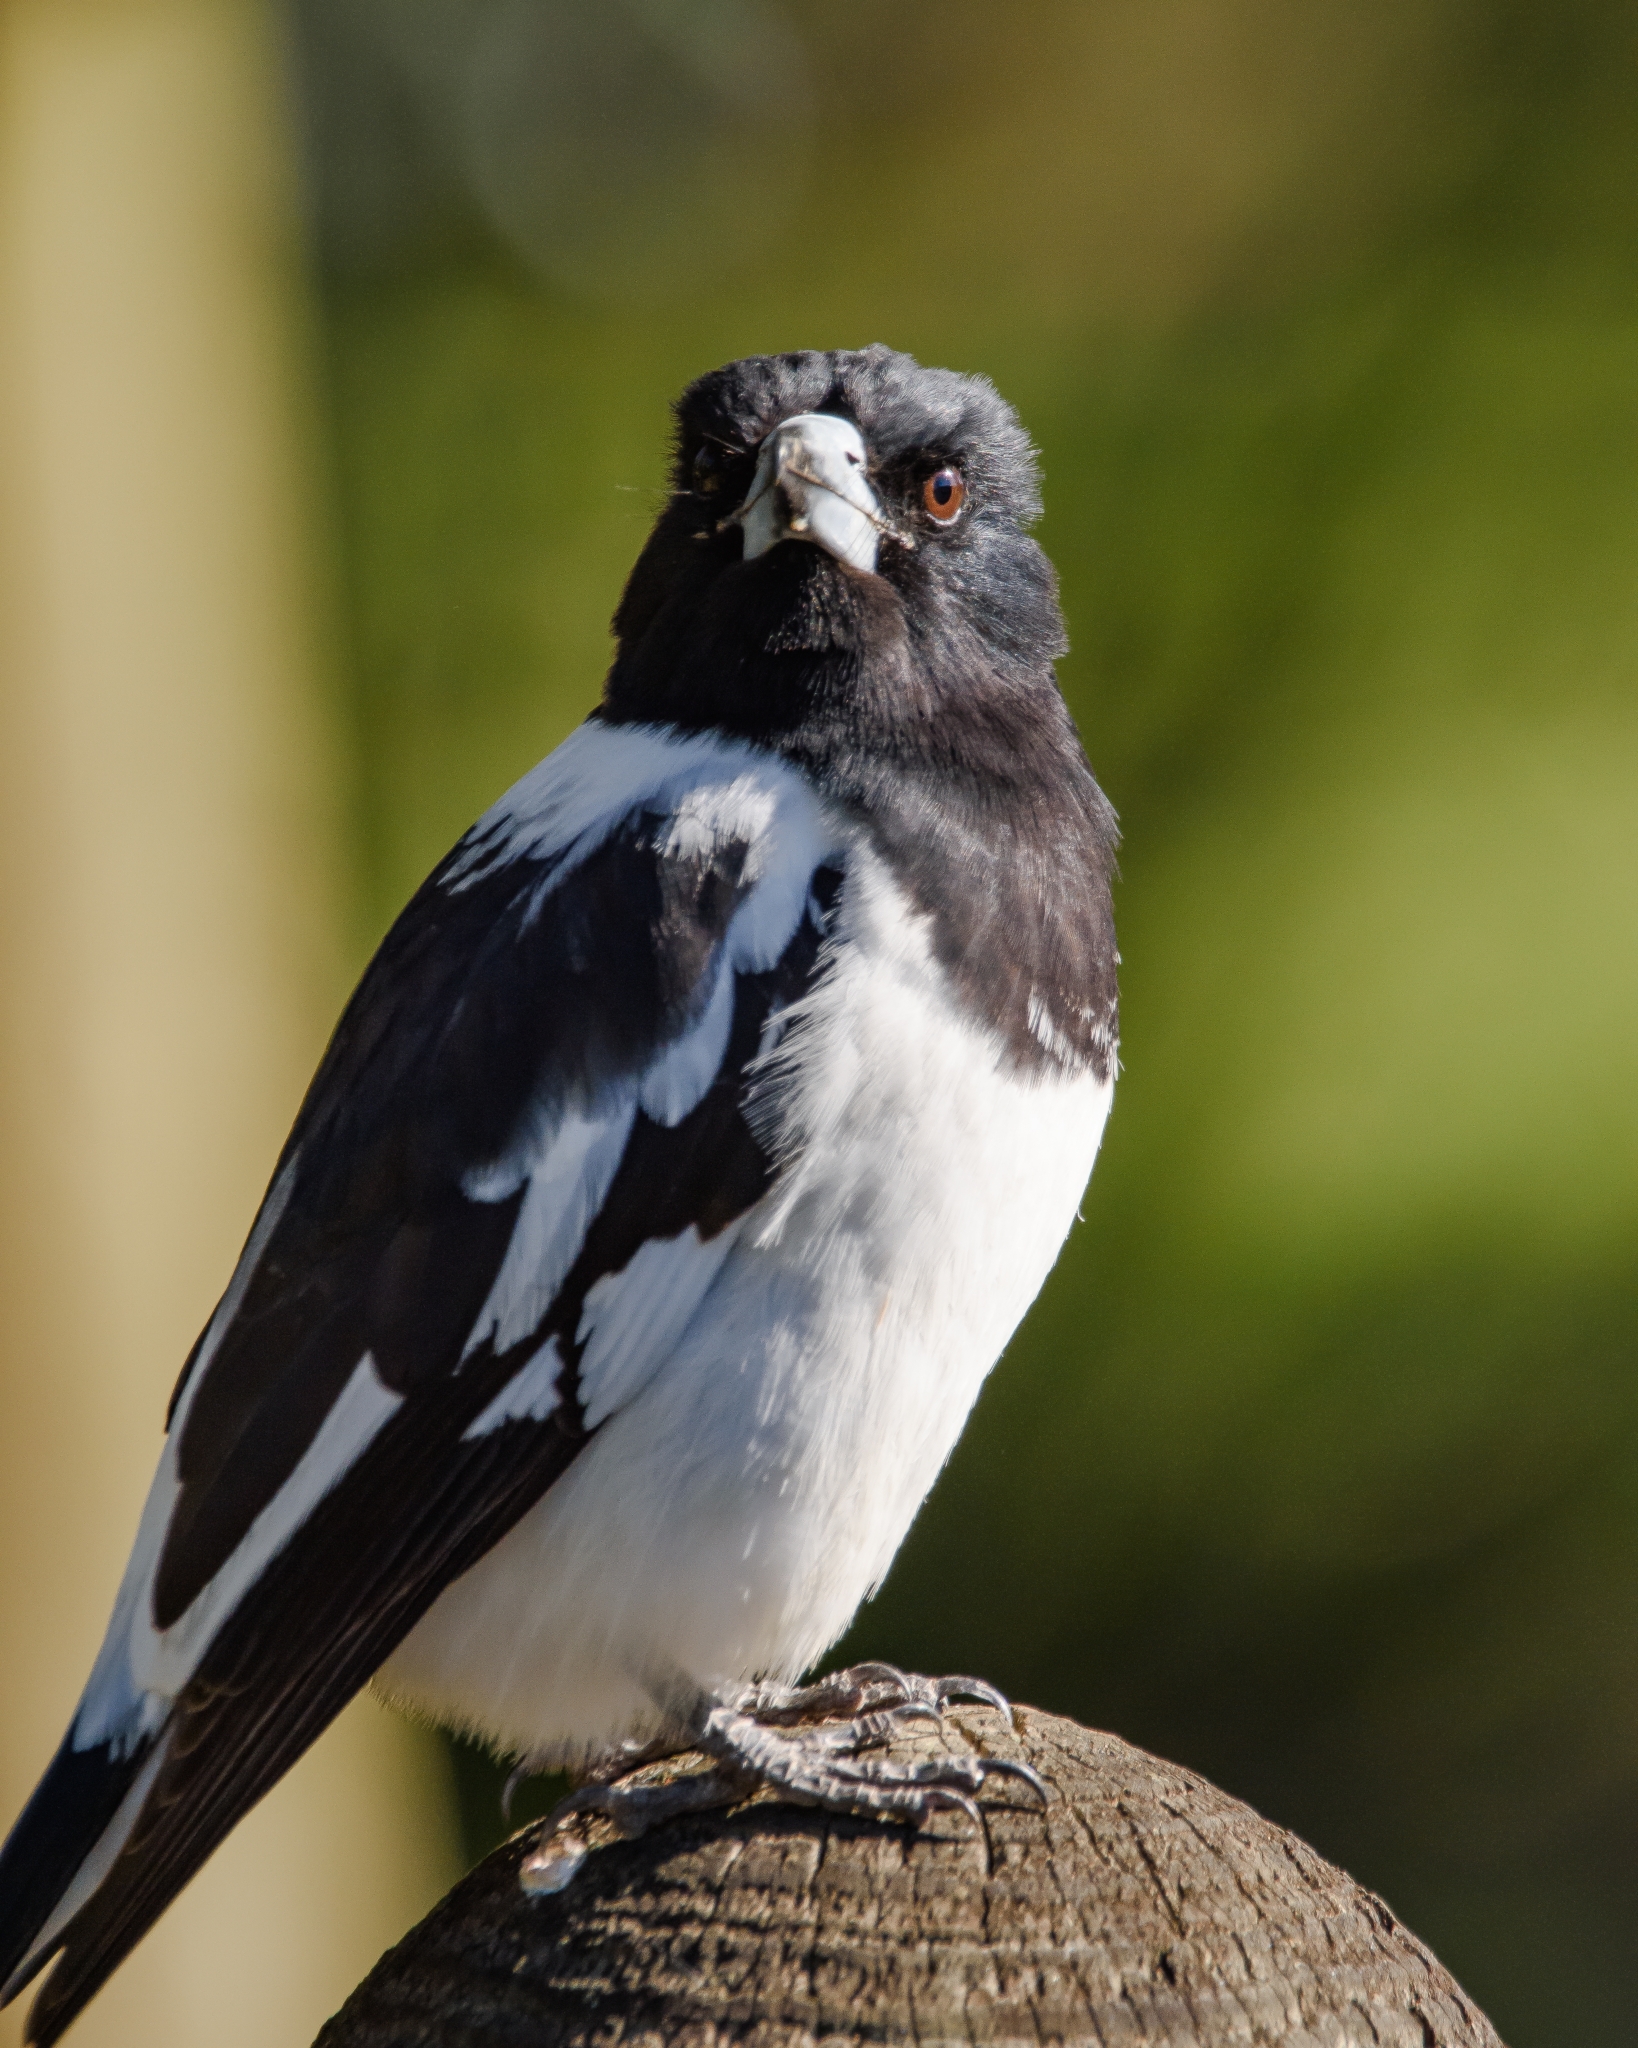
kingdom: Animalia
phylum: Chordata
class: Aves
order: Passeriformes
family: Cracticidae
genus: Cracticus
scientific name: Cracticus nigrogularis
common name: Pied butcherbird
